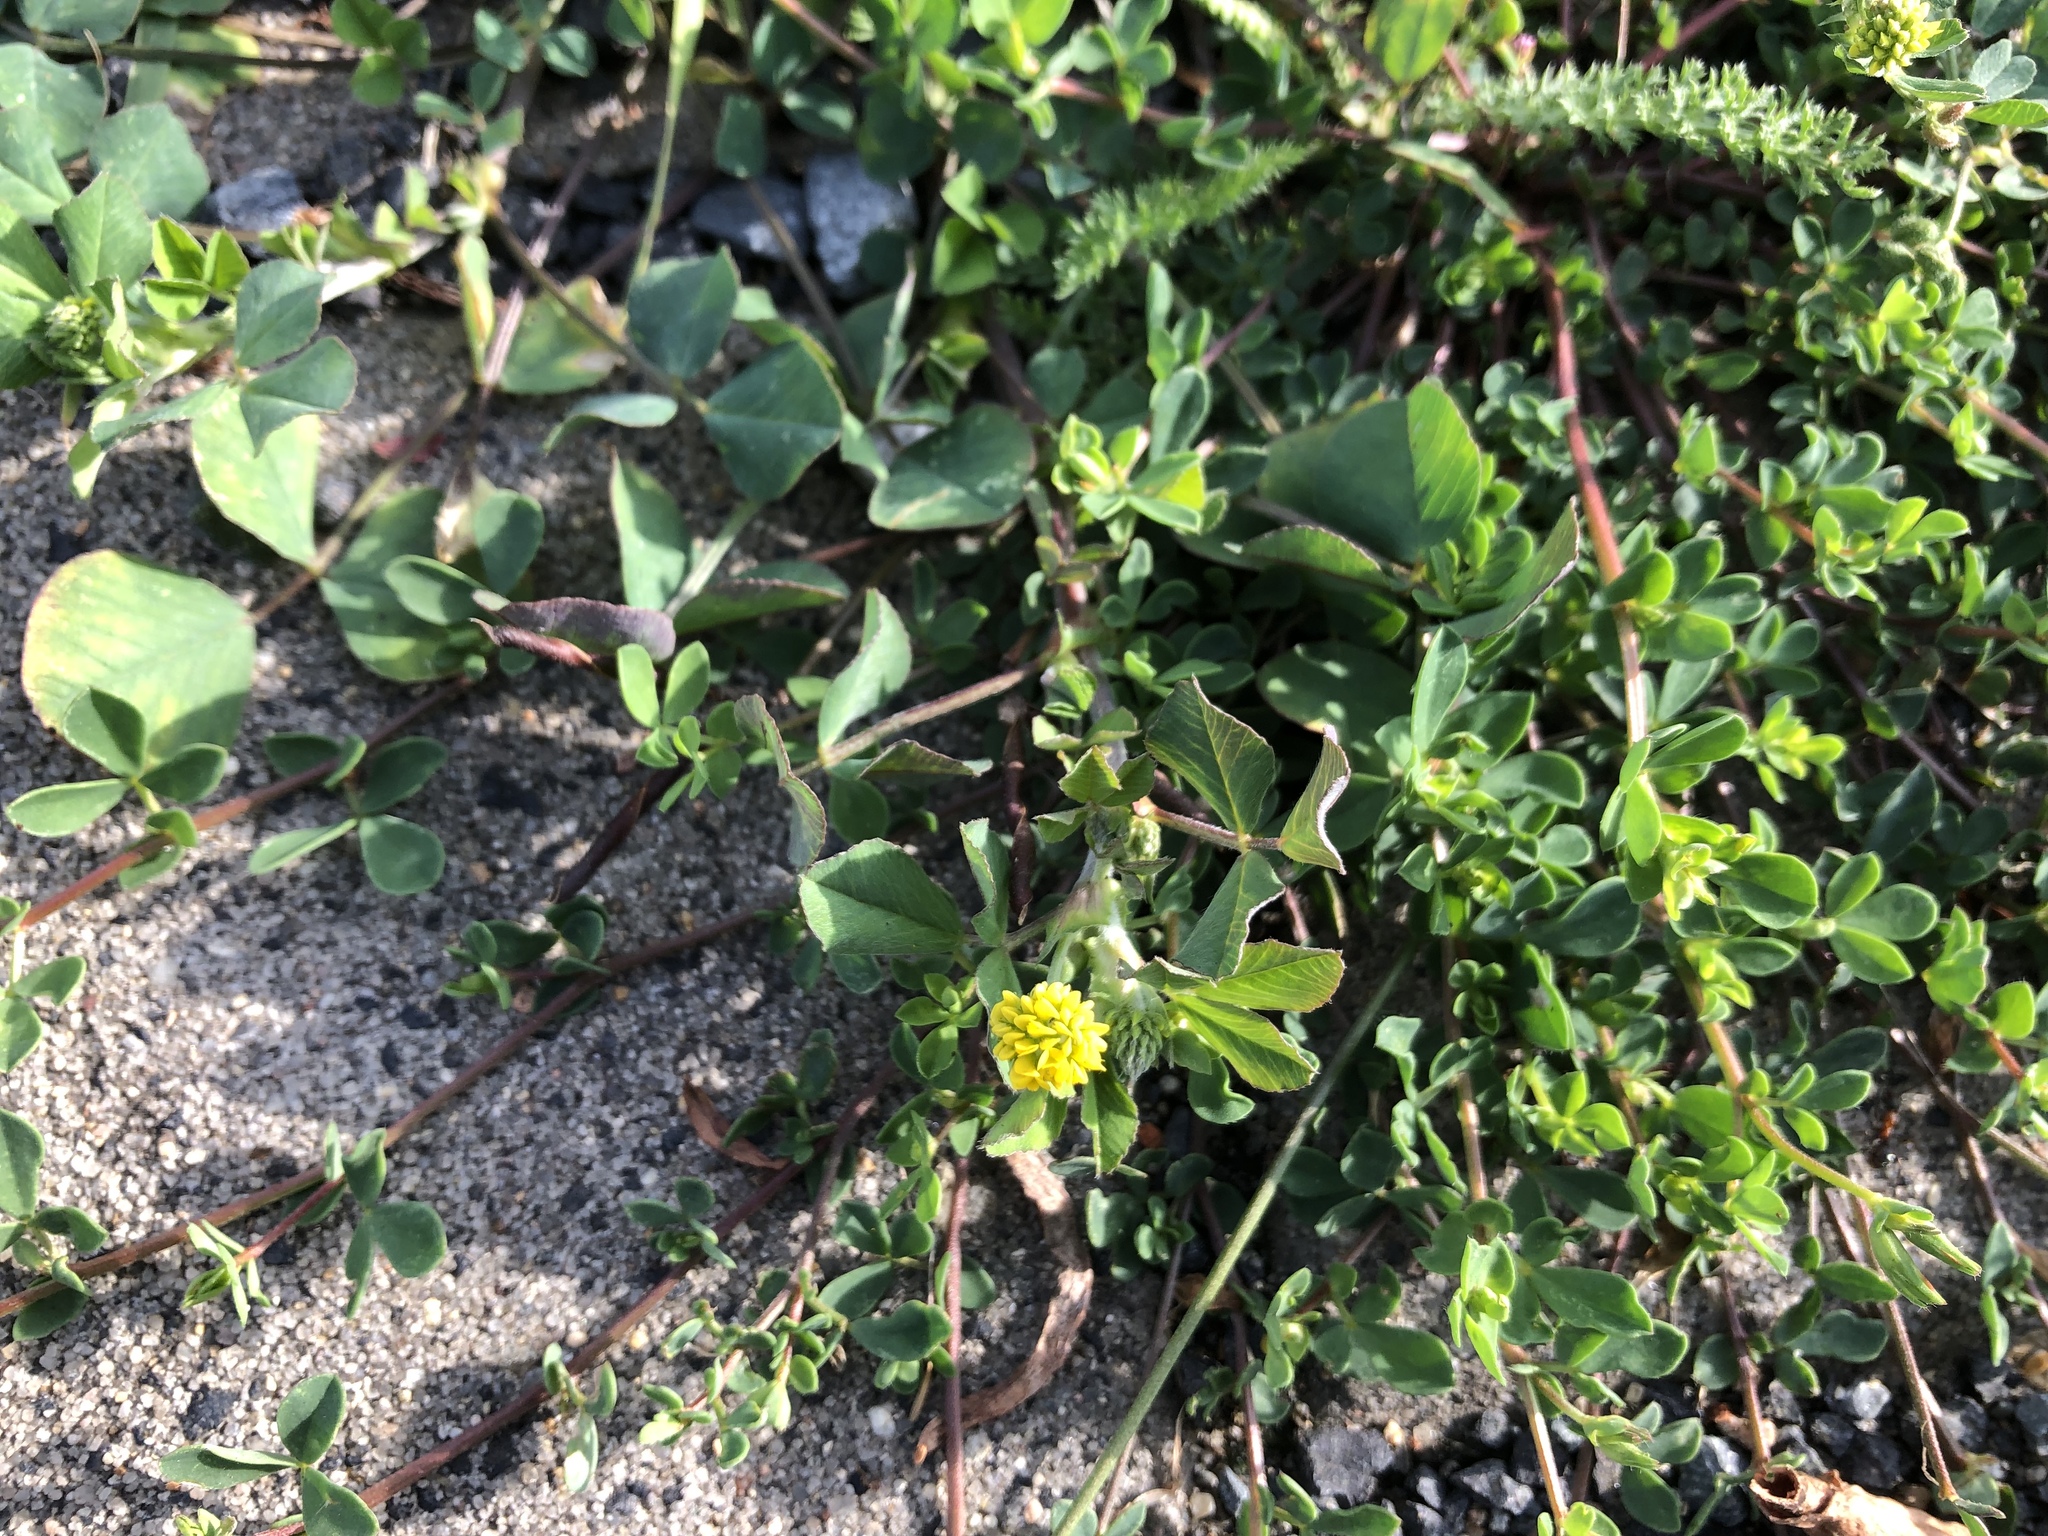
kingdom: Plantae
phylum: Tracheophyta
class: Magnoliopsida
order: Fabales
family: Fabaceae
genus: Medicago
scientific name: Medicago lupulina
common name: Black medick
